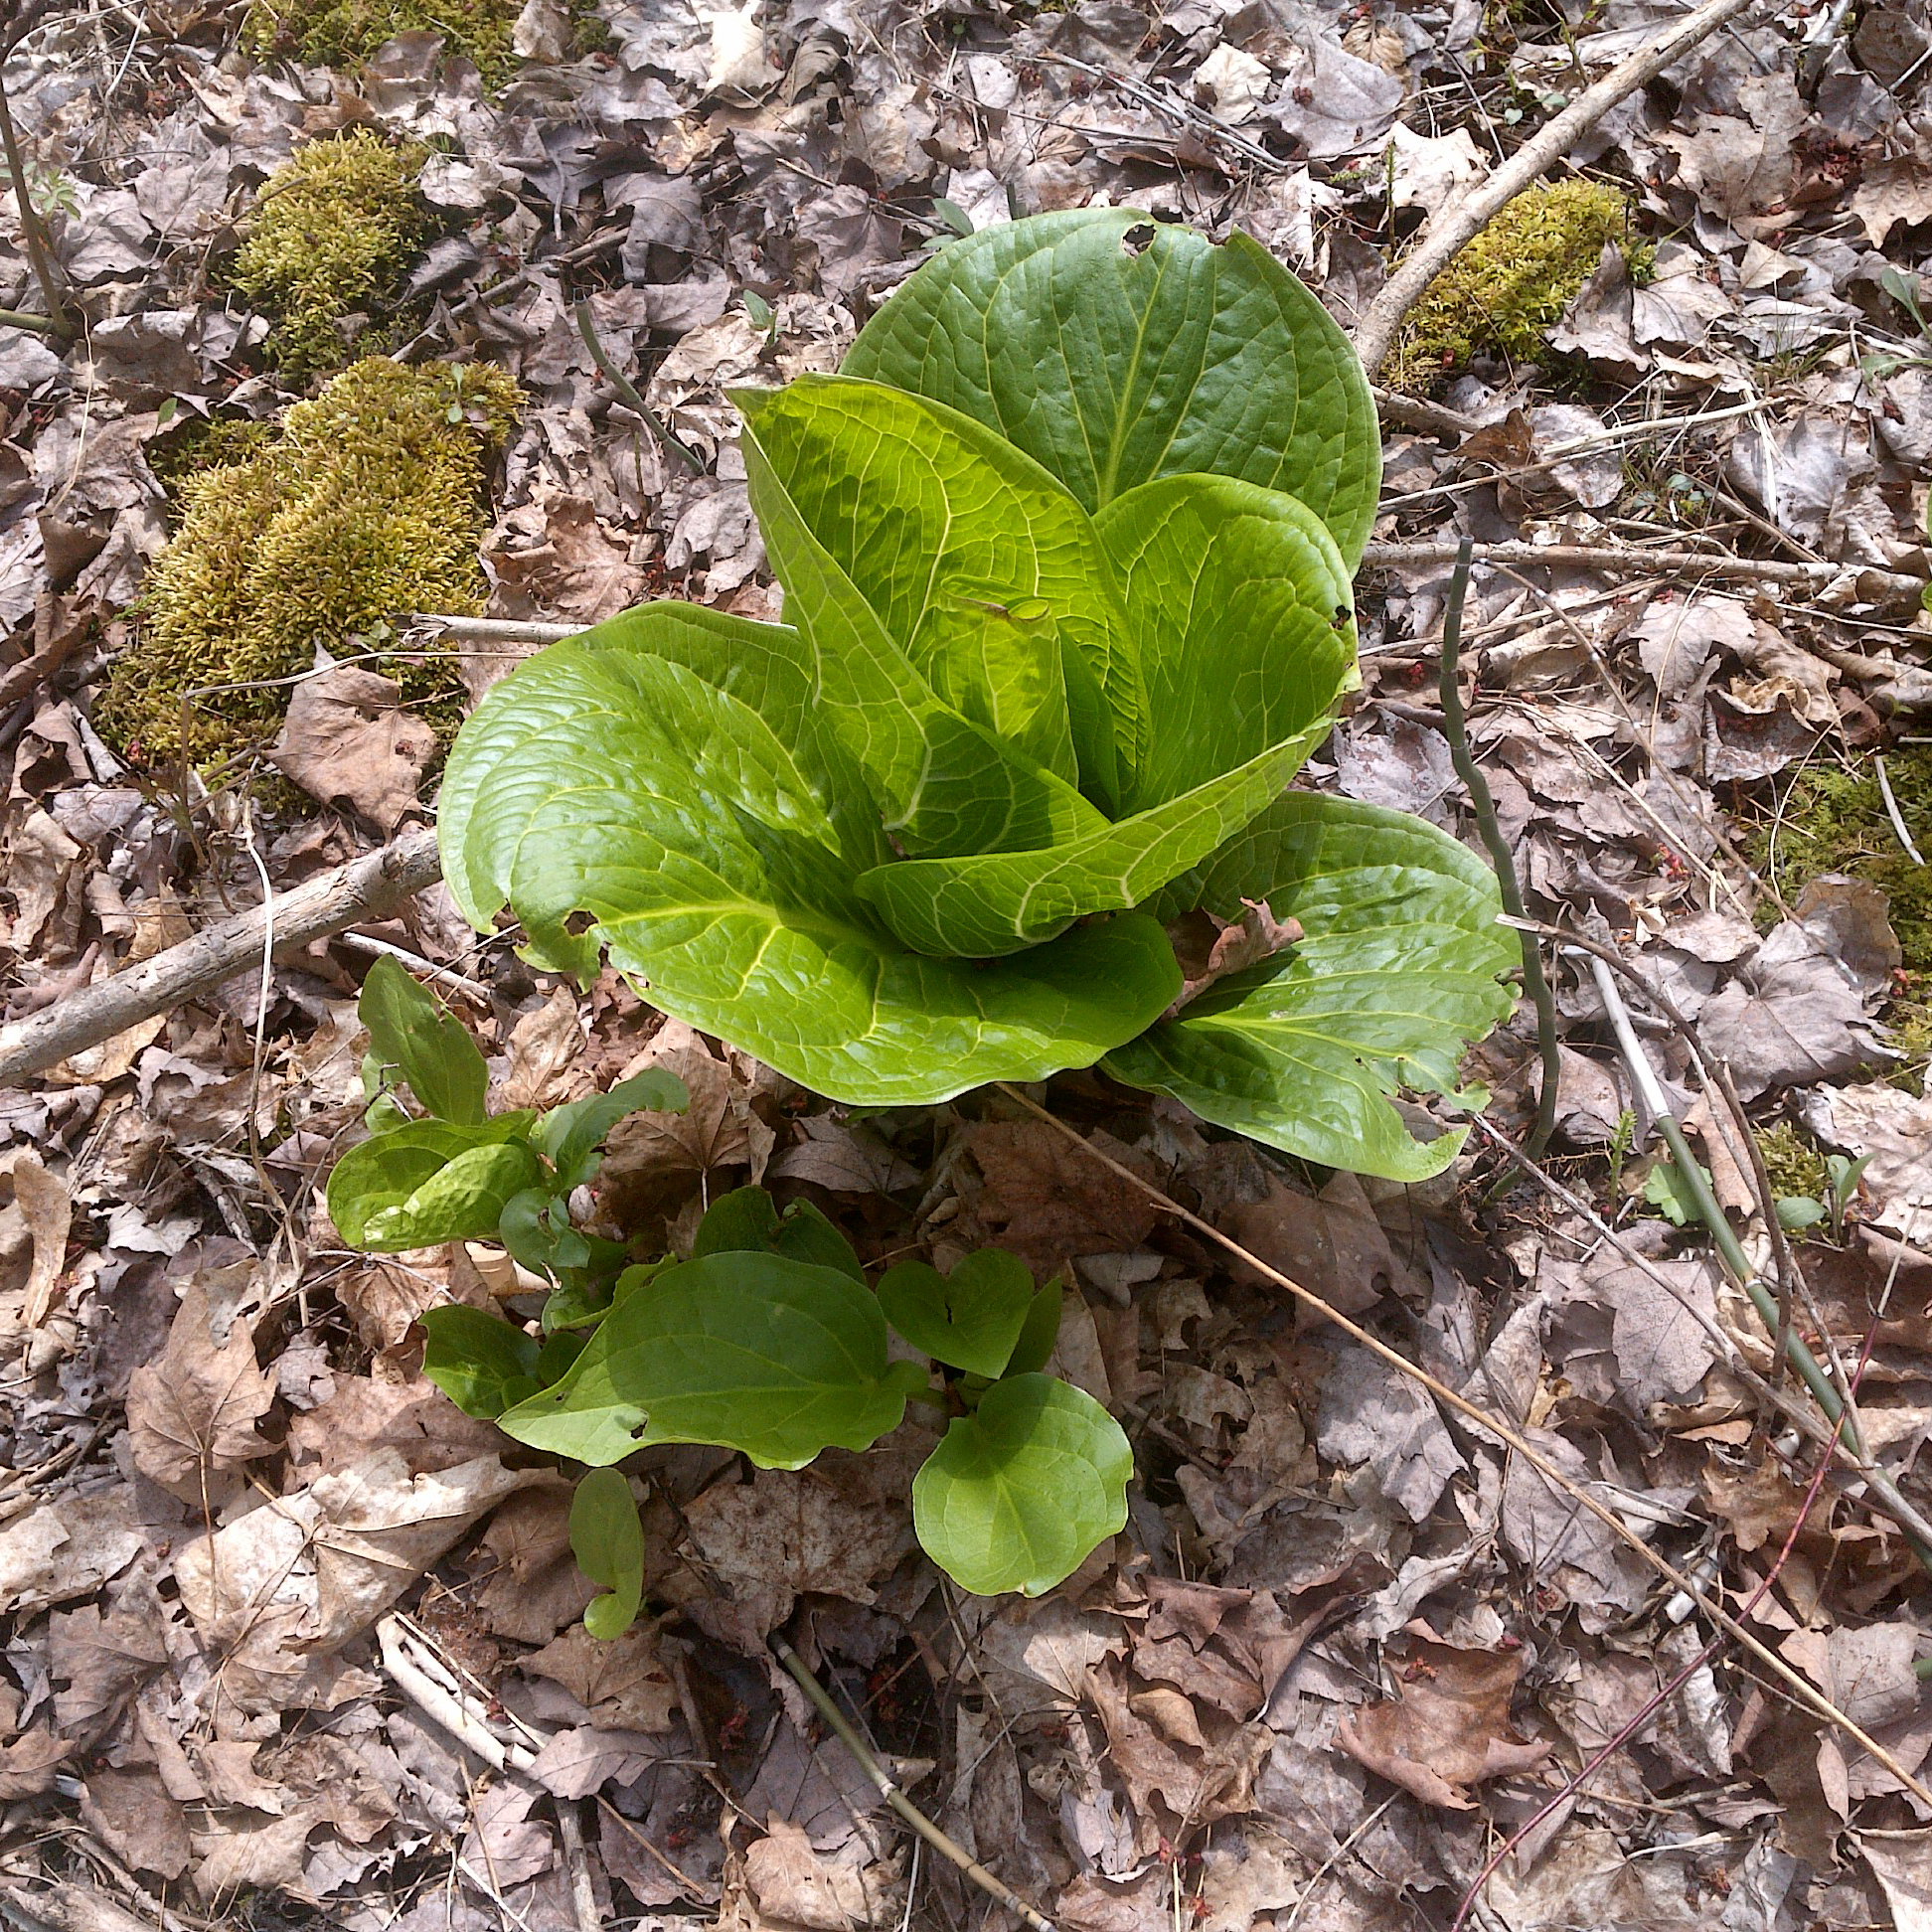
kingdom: Plantae
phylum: Tracheophyta
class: Liliopsida
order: Alismatales
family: Araceae
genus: Symplocarpus
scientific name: Symplocarpus foetidus
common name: Eastern skunk cabbage
